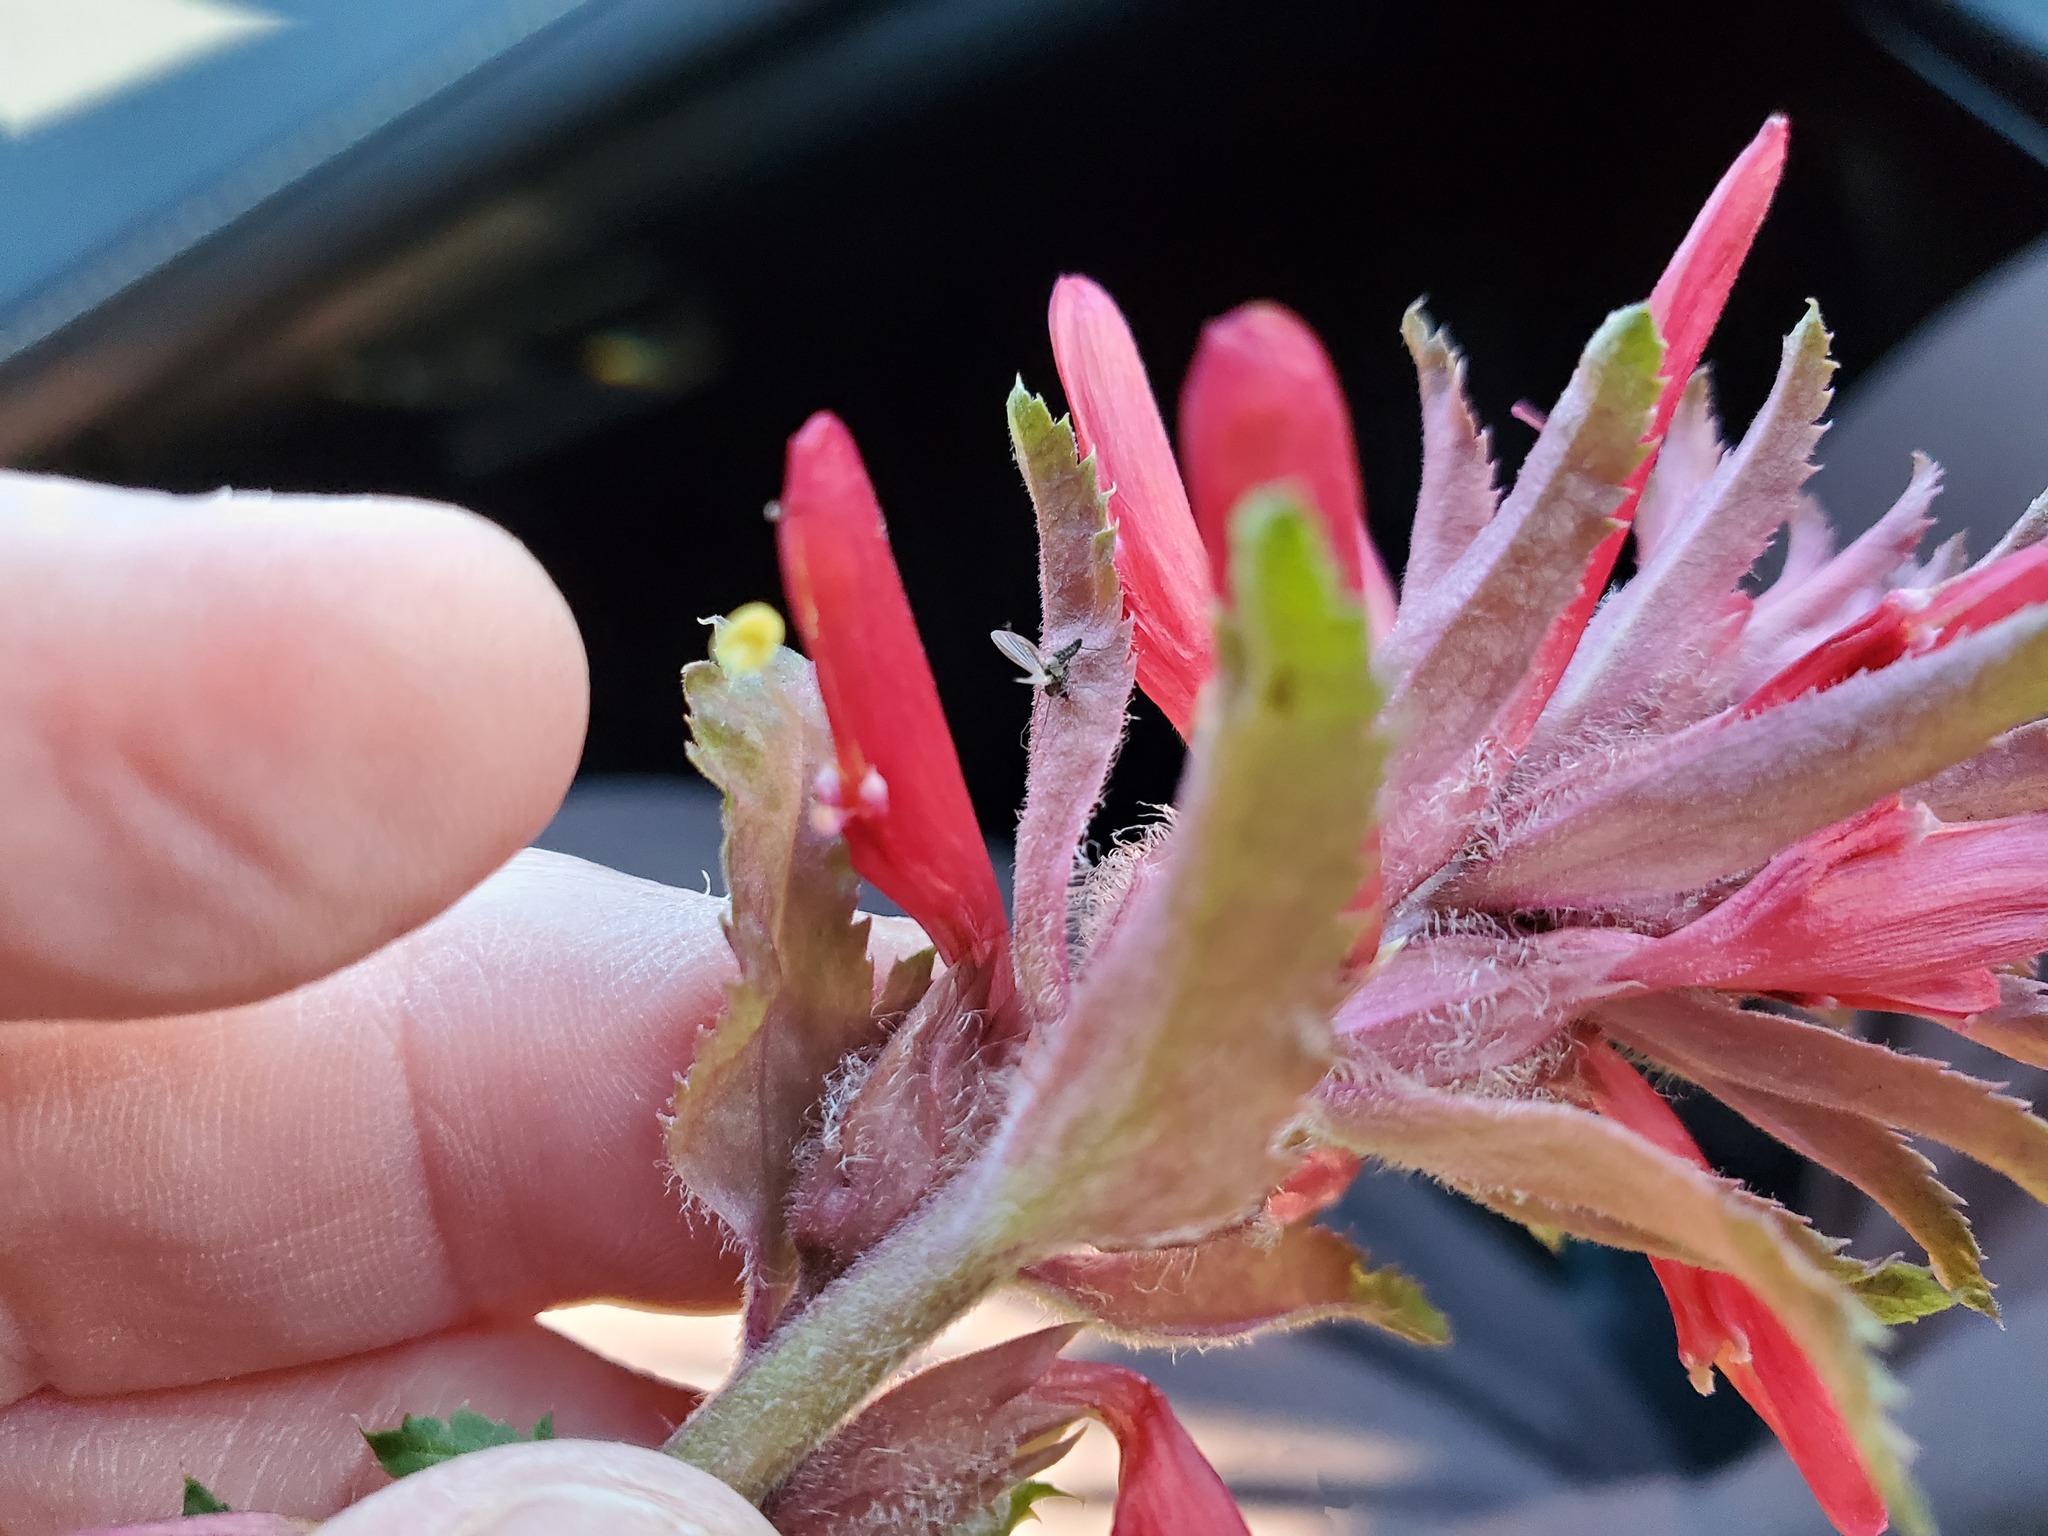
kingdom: Plantae
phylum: Tracheophyta
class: Magnoliopsida
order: Lamiales
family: Orobanchaceae
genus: Pedicularis
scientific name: Pedicularis densiflora
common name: Indian warrior
